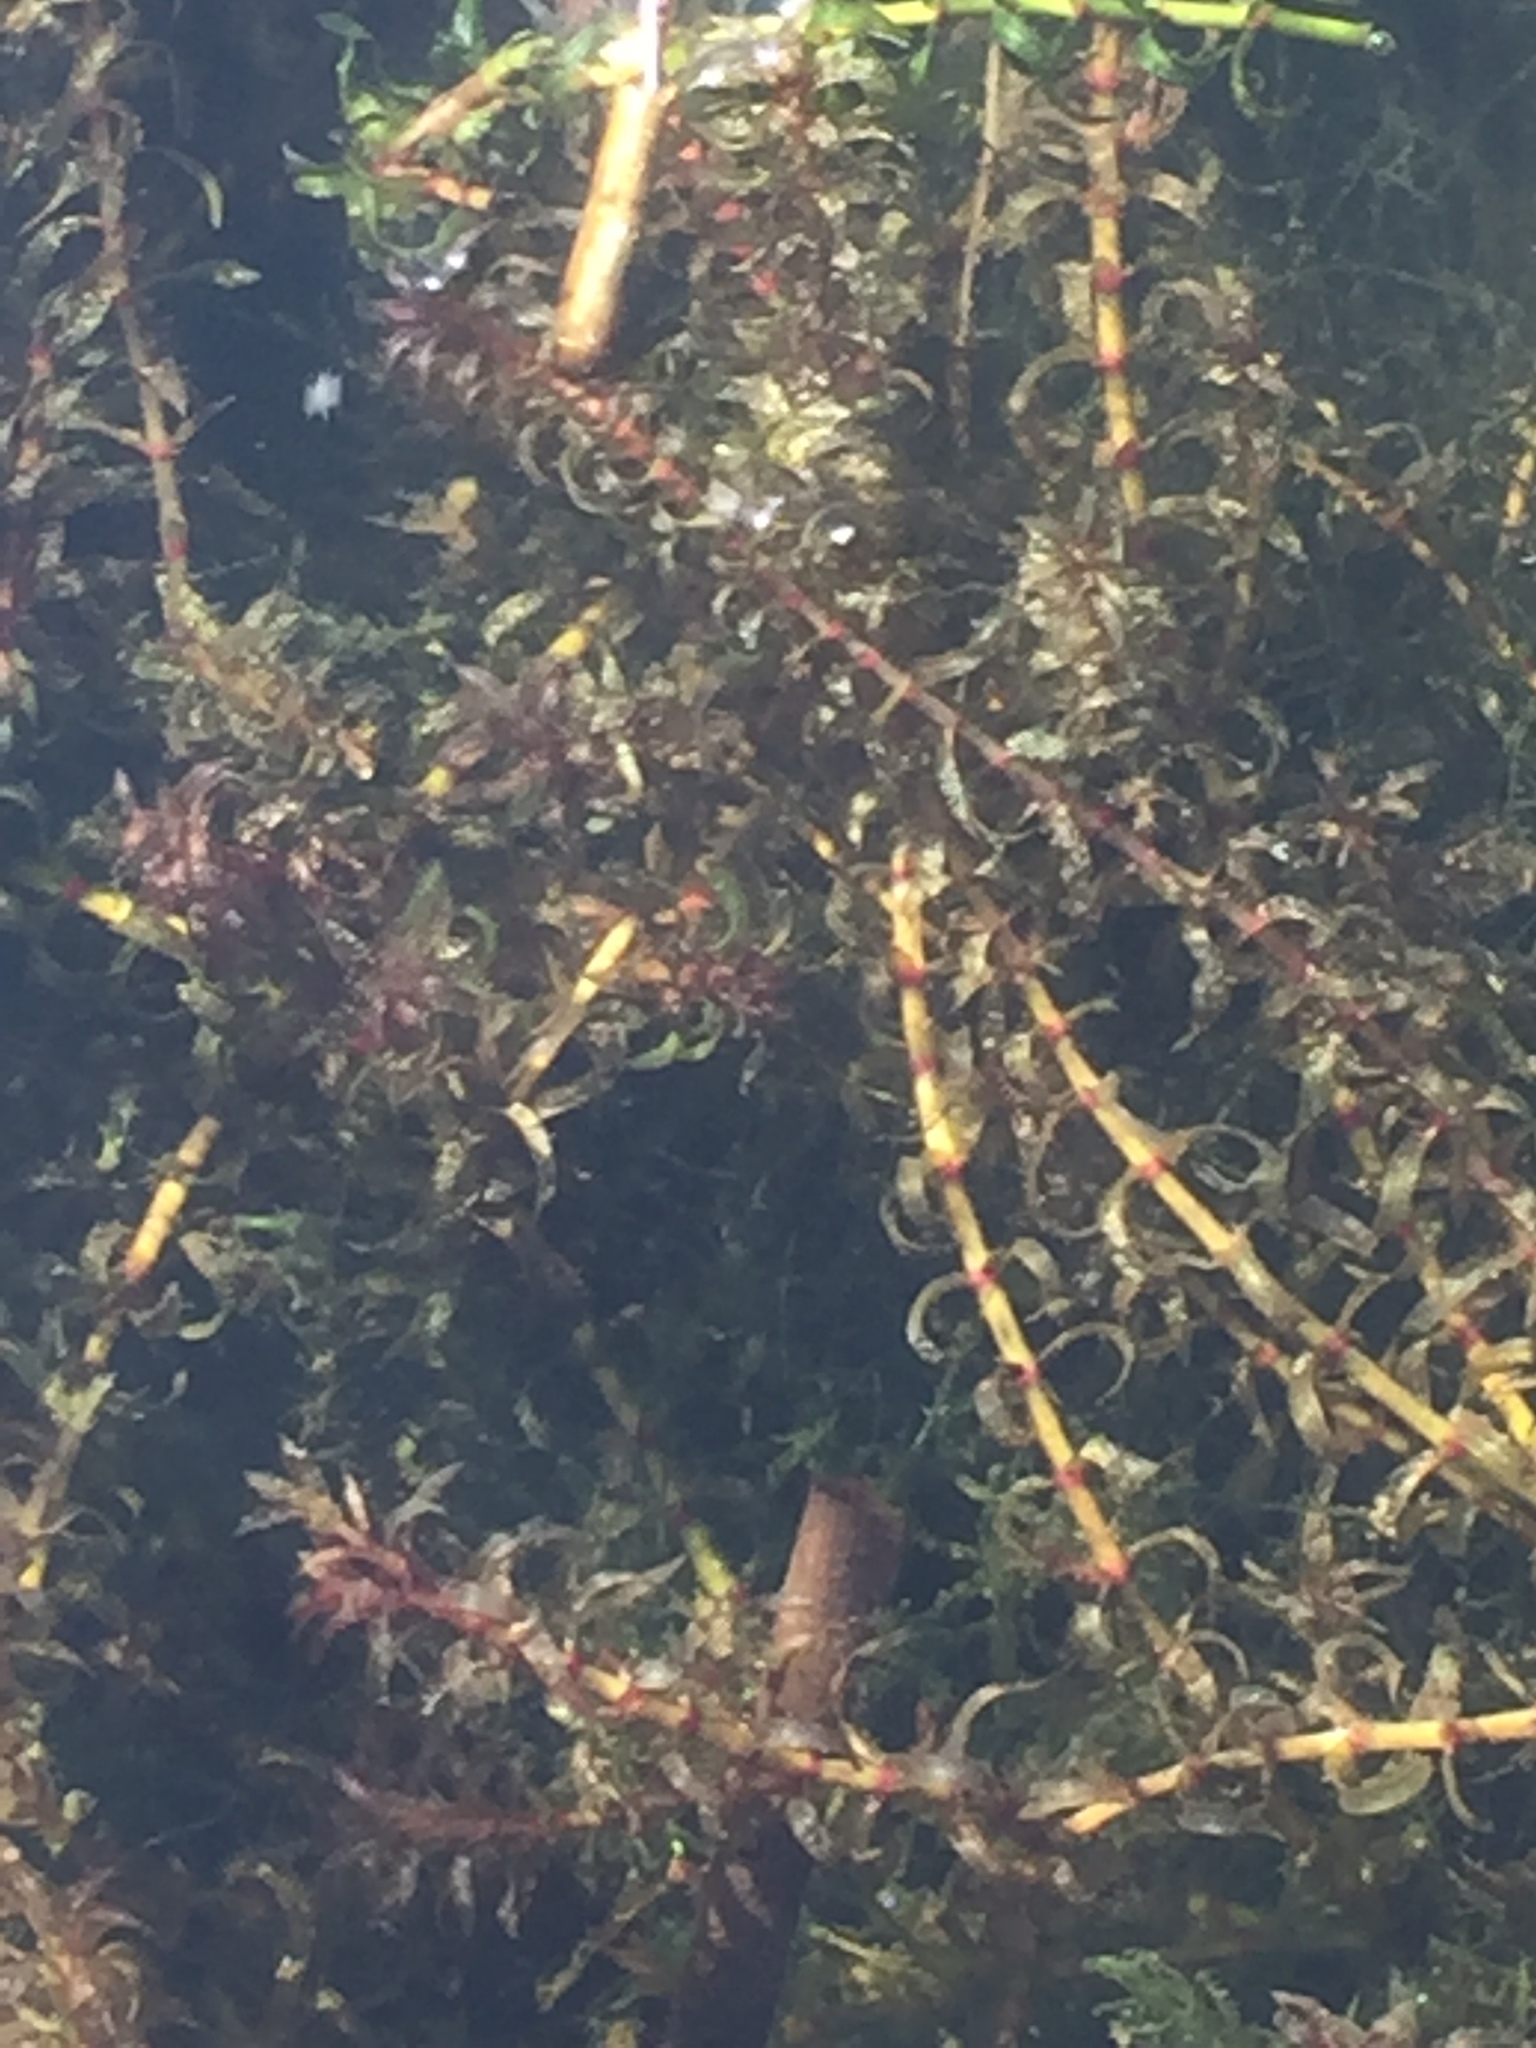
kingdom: Plantae
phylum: Tracheophyta
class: Liliopsida
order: Alismatales
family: Hydrocharitaceae
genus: Elodea
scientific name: Elodea nuttallii
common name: Nuttall's waterweed
